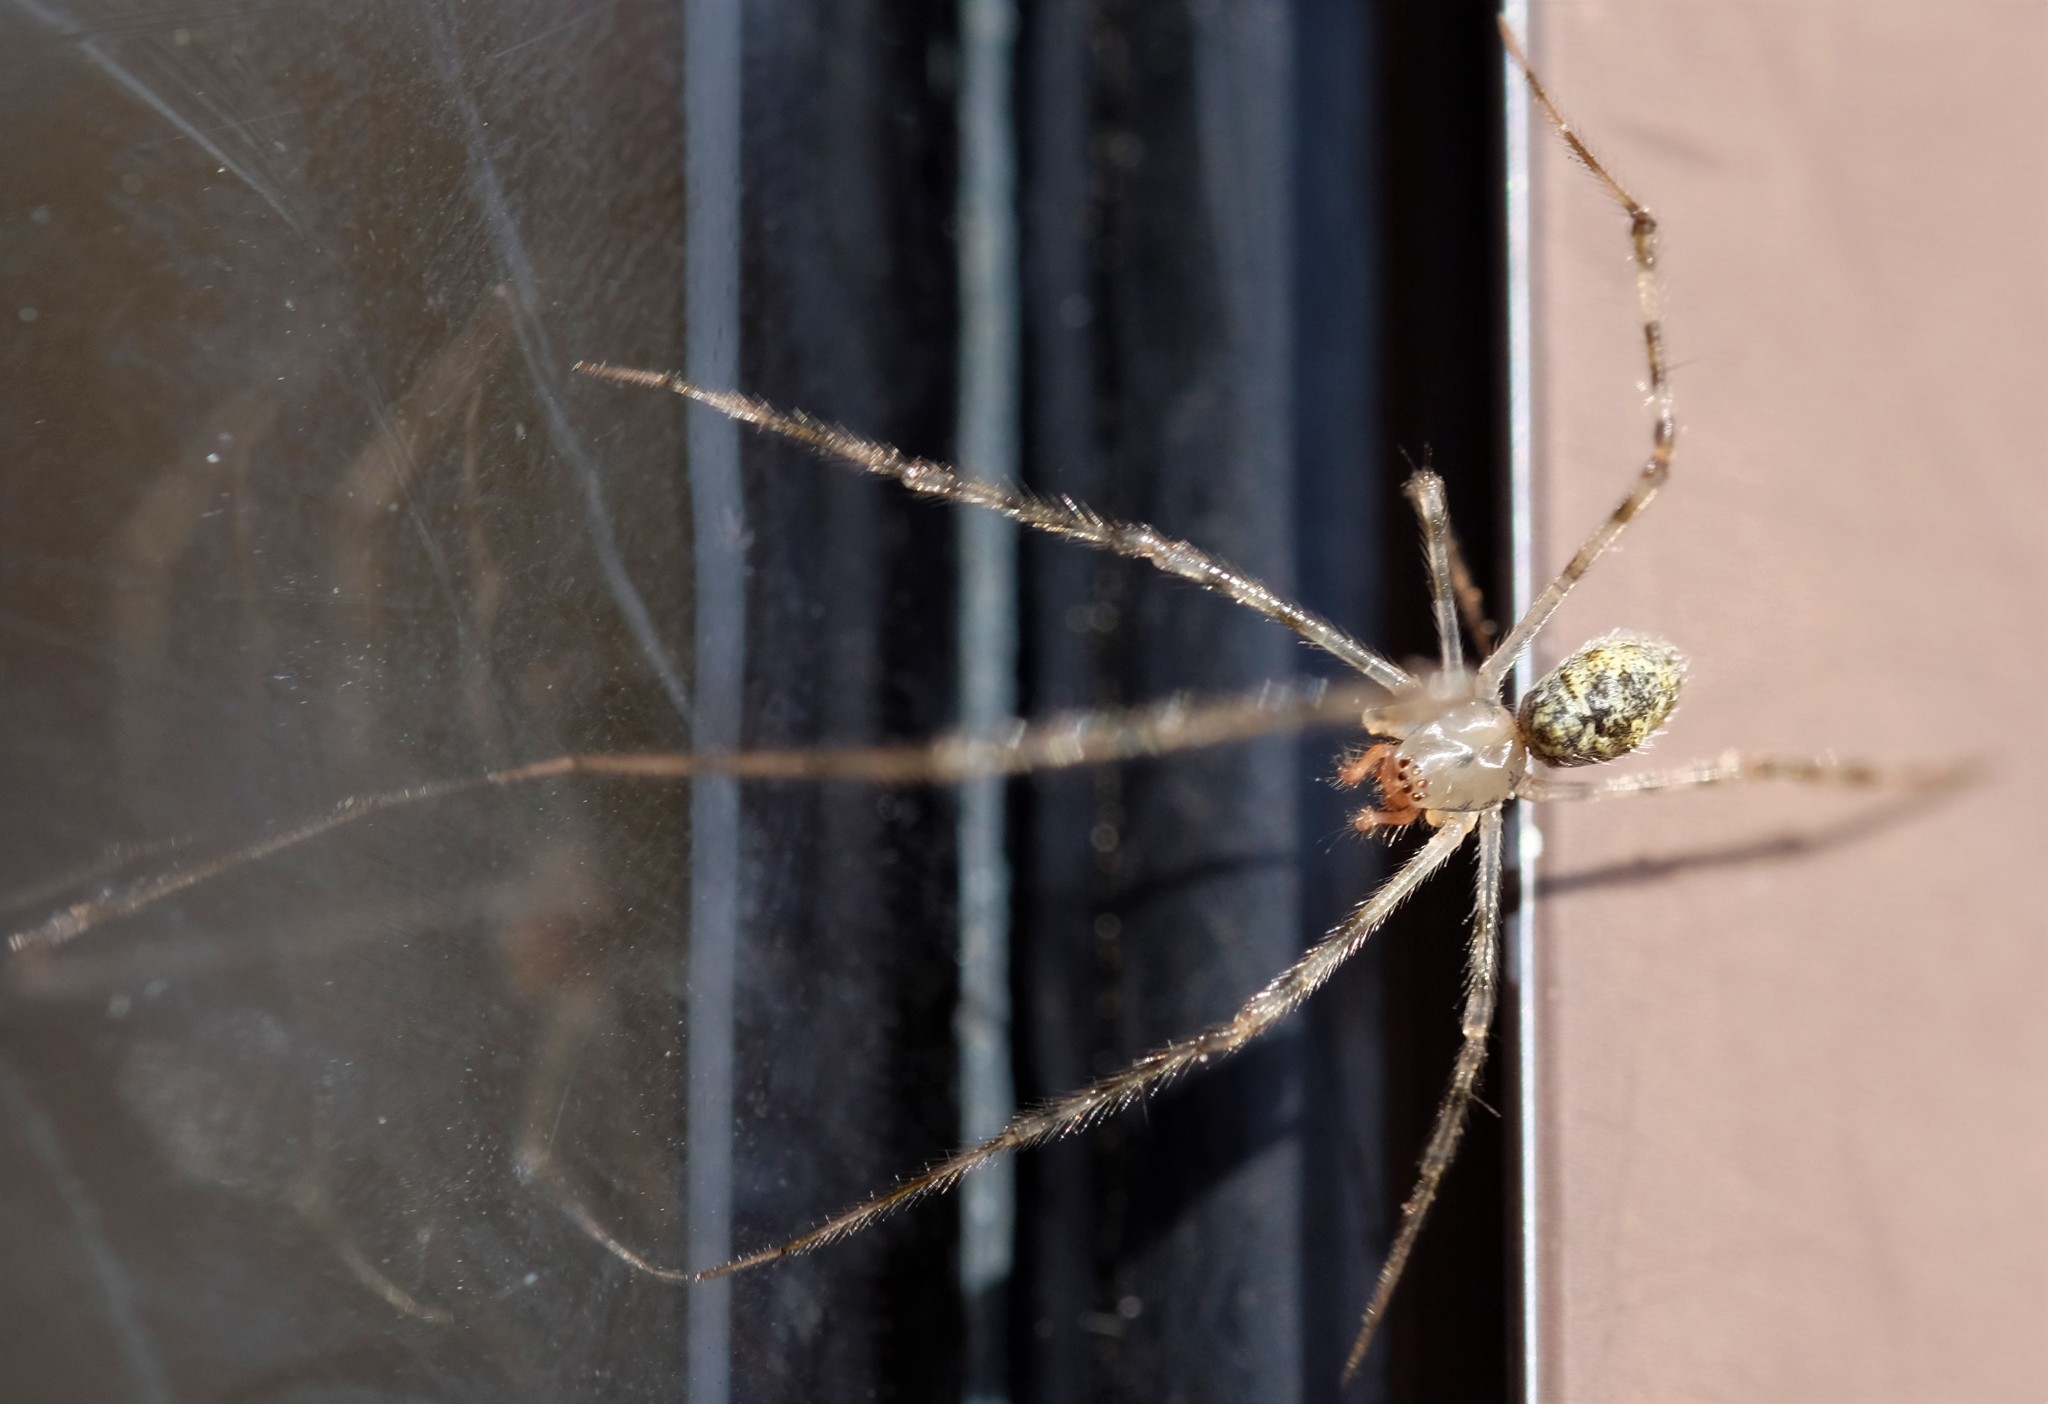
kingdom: Animalia
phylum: Arthropoda
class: Arachnida
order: Araneae
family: Theridiidae
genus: Cryptachaea
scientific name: Cryptachaea gigantipes
